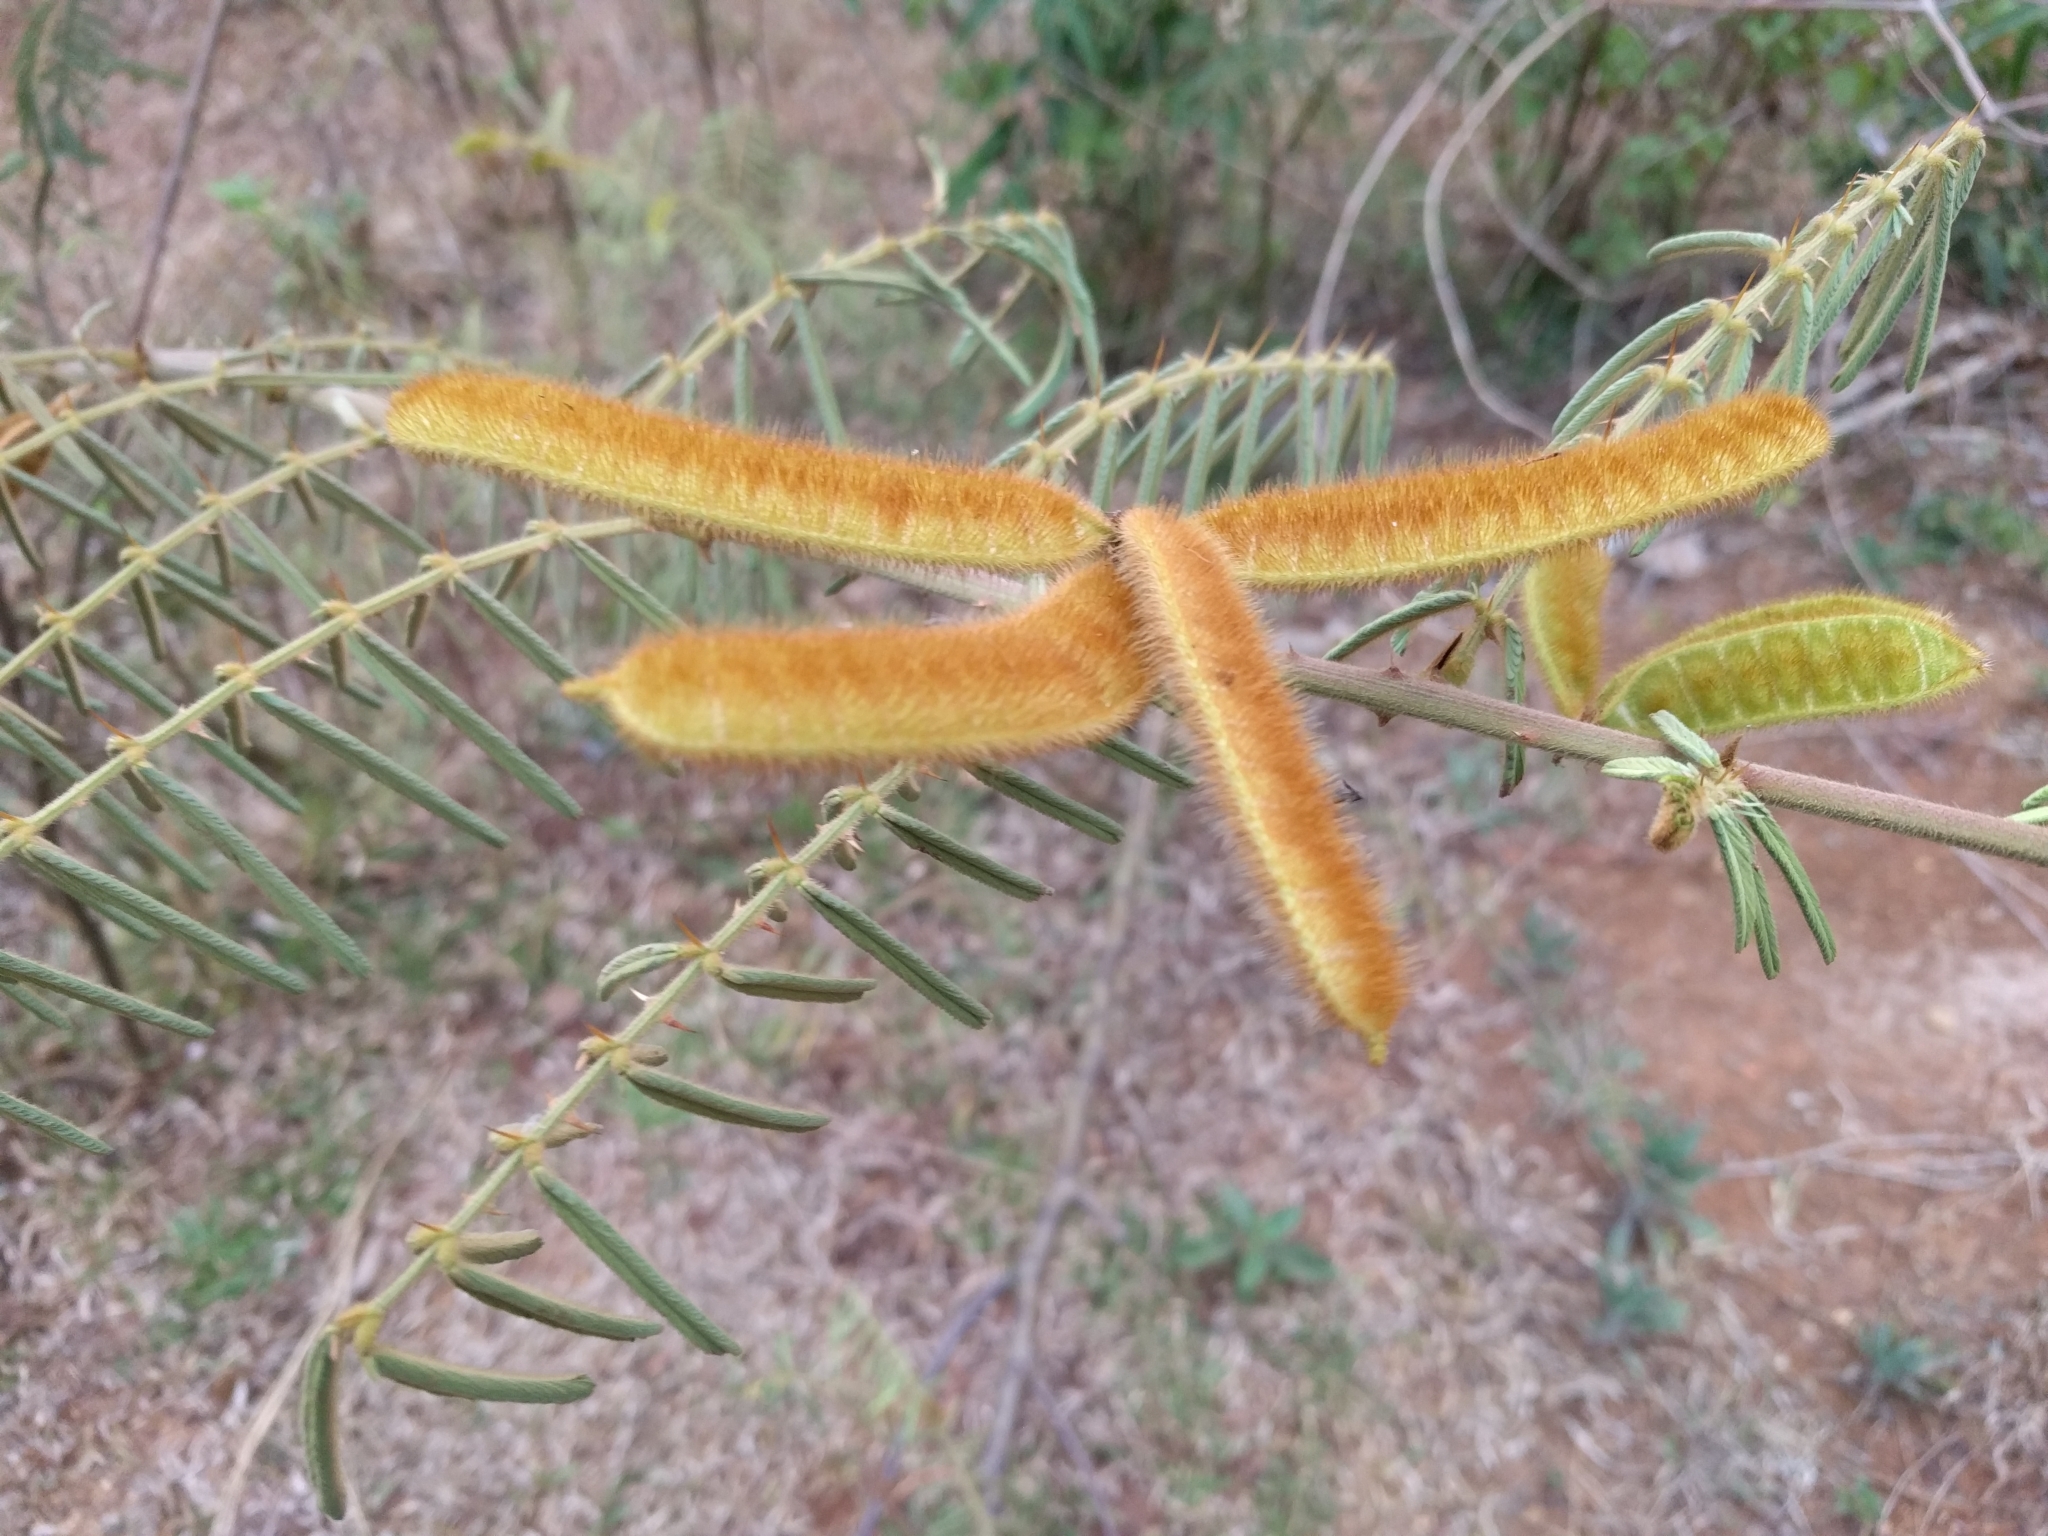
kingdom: Plantae
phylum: Tracheophyta
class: Magnoliopsida
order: Fabales
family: Fabaceae
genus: Mimosa
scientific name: Mimosa pigra
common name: Black mimosa
